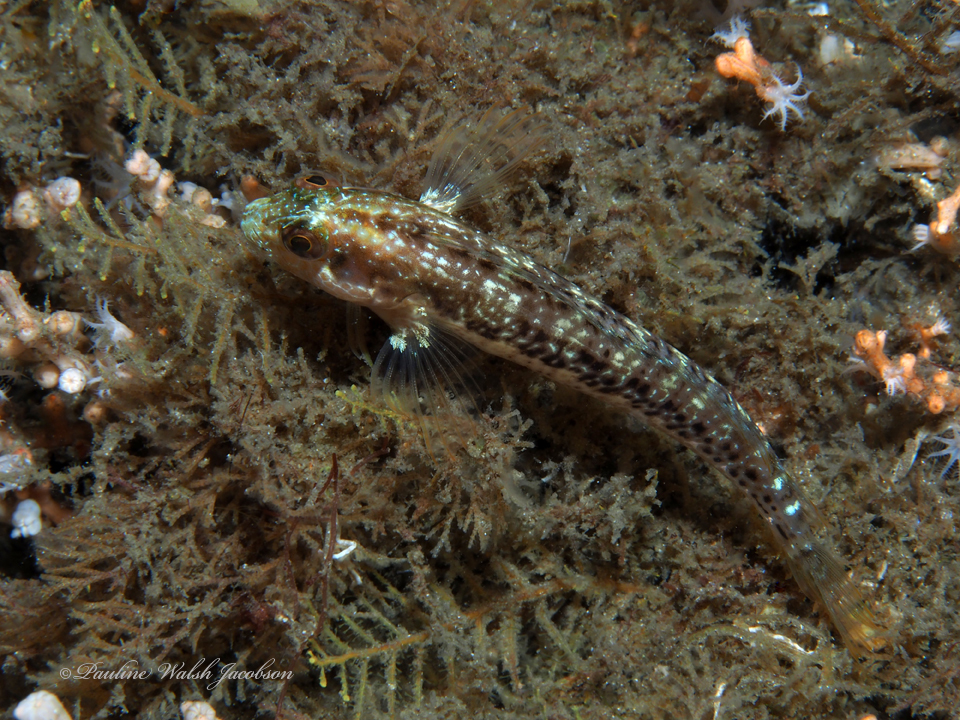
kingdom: Animalia
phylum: Chordata
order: Perciformes
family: Blenniidae
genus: Parablennius
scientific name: Parablennius marmoreus
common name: Seaweed blenny
